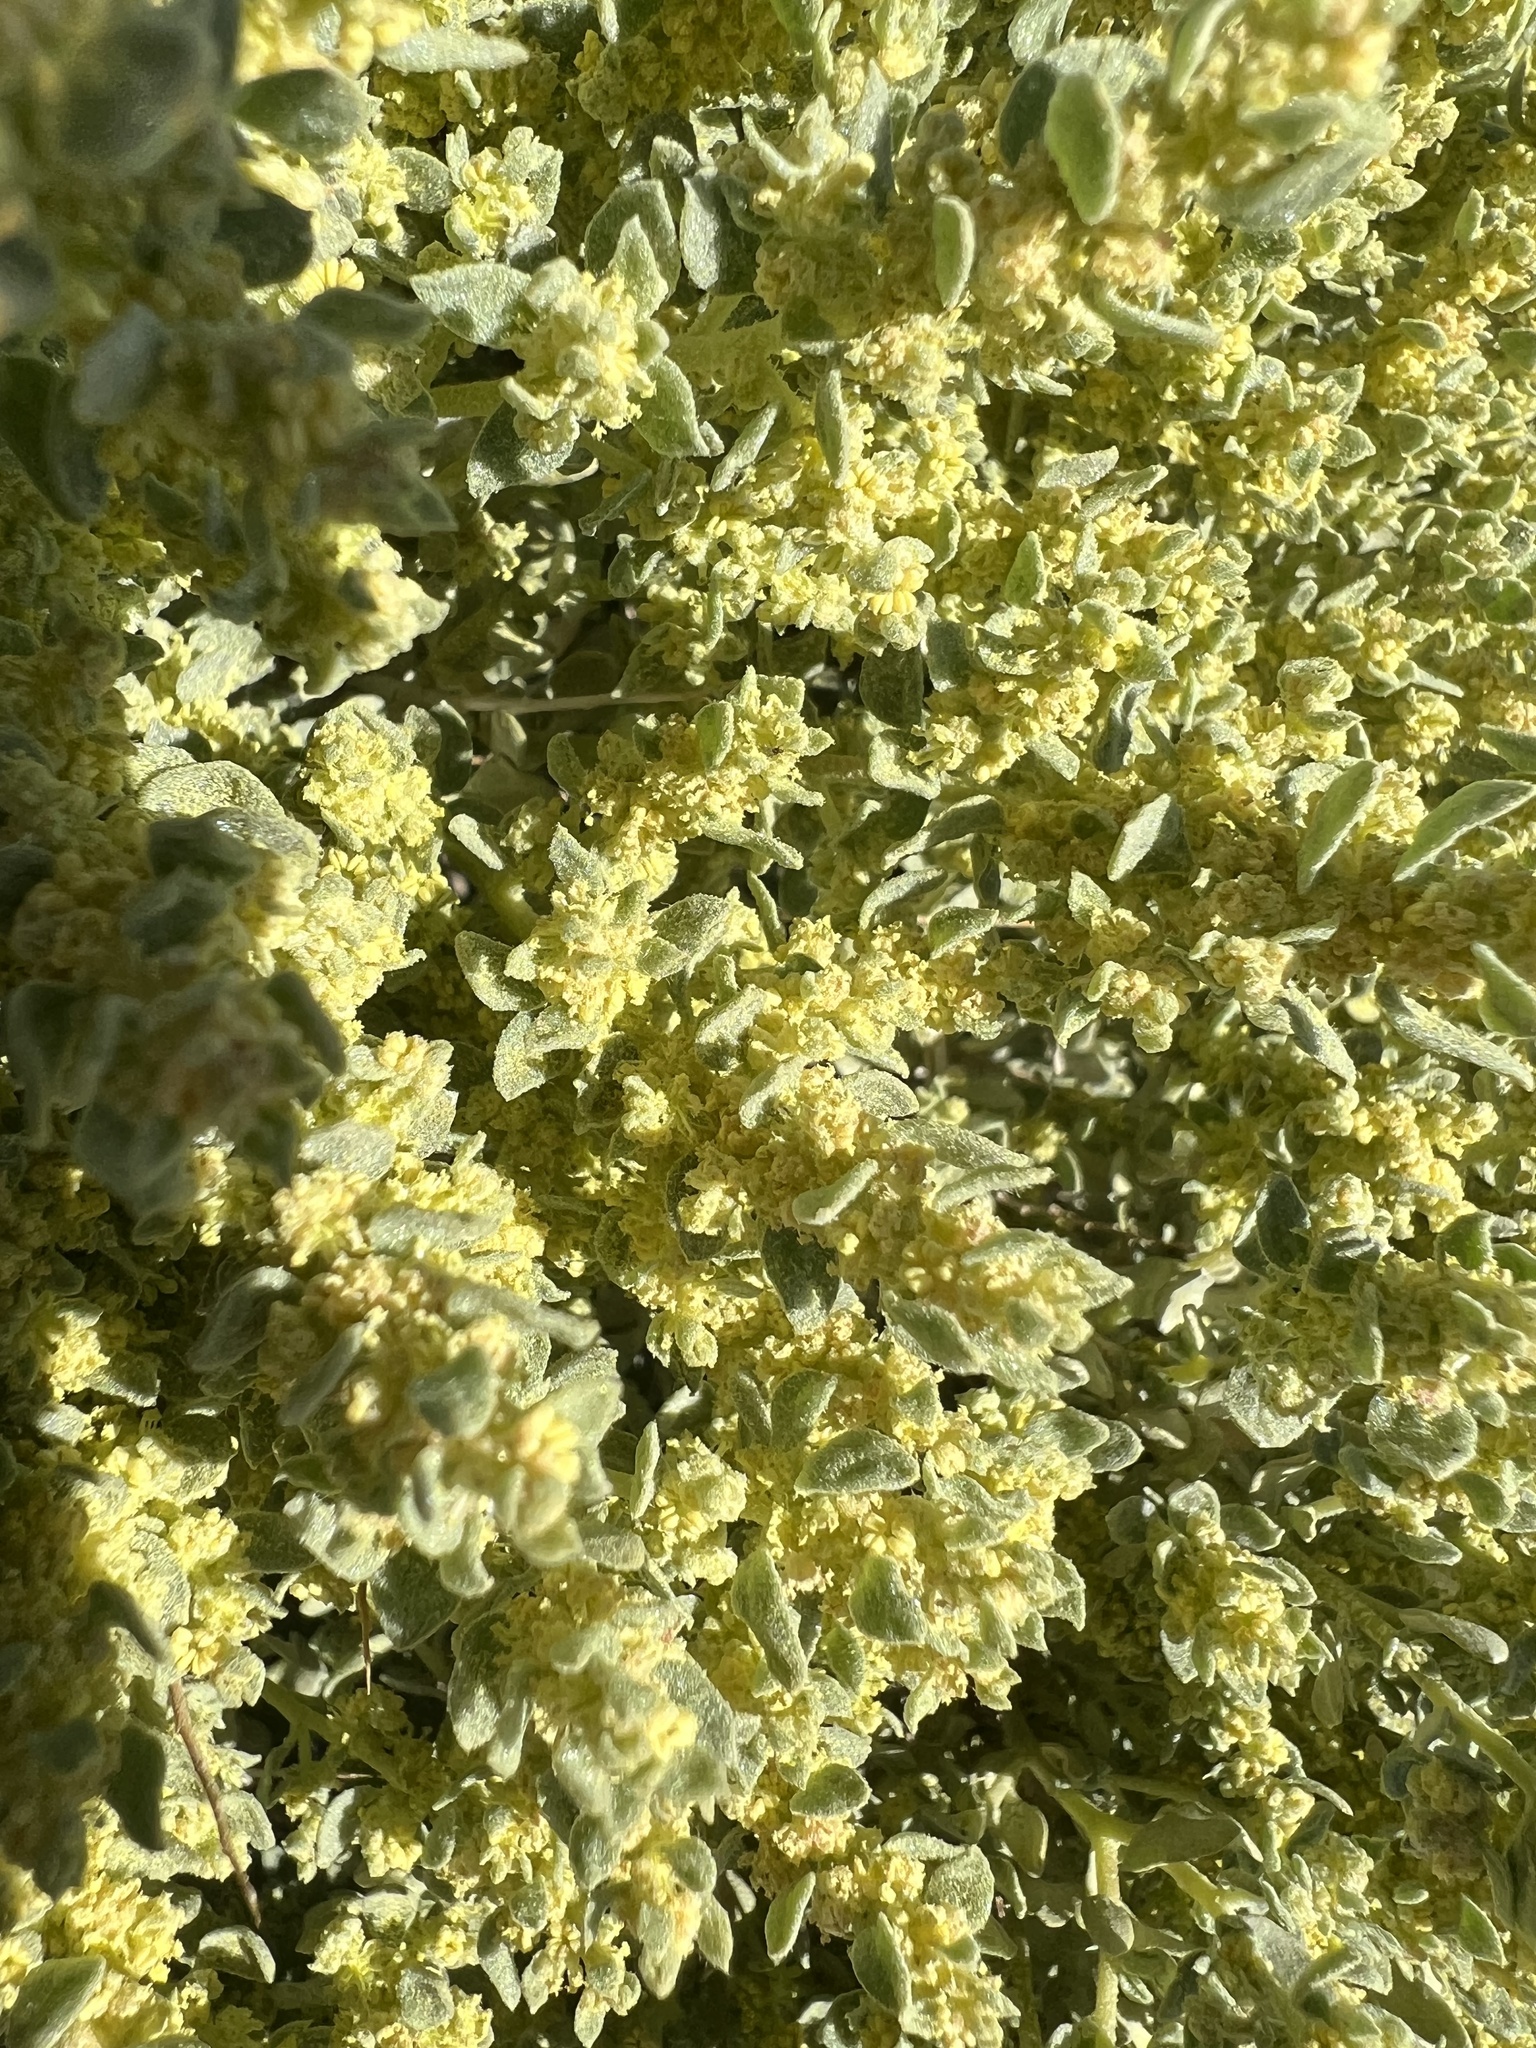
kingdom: Plantae
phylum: Tracheophyta
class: Magnoliopsida
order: Caryophyllales
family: Amaranthaceae
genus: Atriplex
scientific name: Atriplex confertifolia
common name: Shadscale
